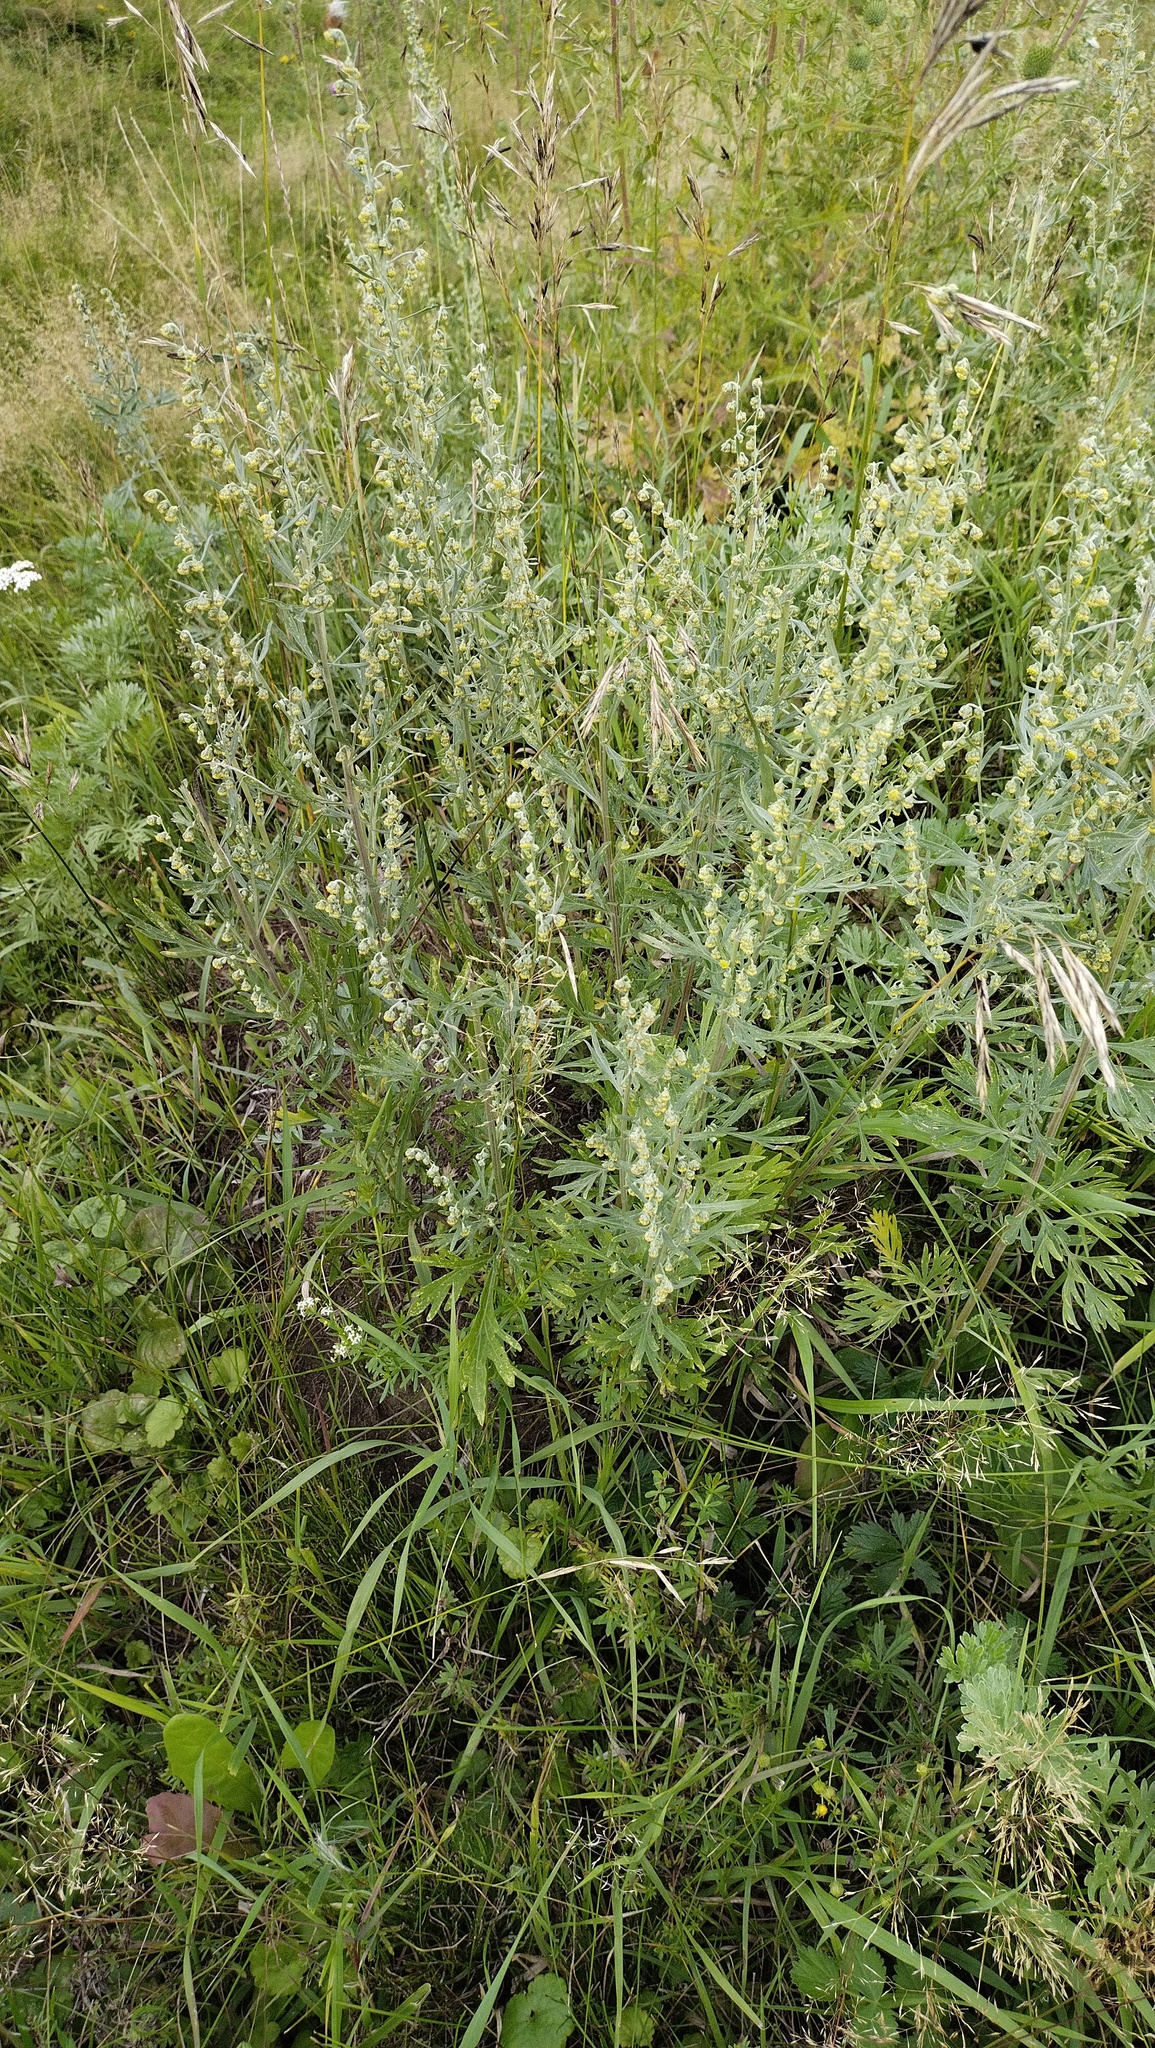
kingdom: Plantae
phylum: Tracheophyta
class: Magnoliopsida
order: Asterales
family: Asteraceae
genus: Artemisia
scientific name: Artemisia absinthium
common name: Wormwood
